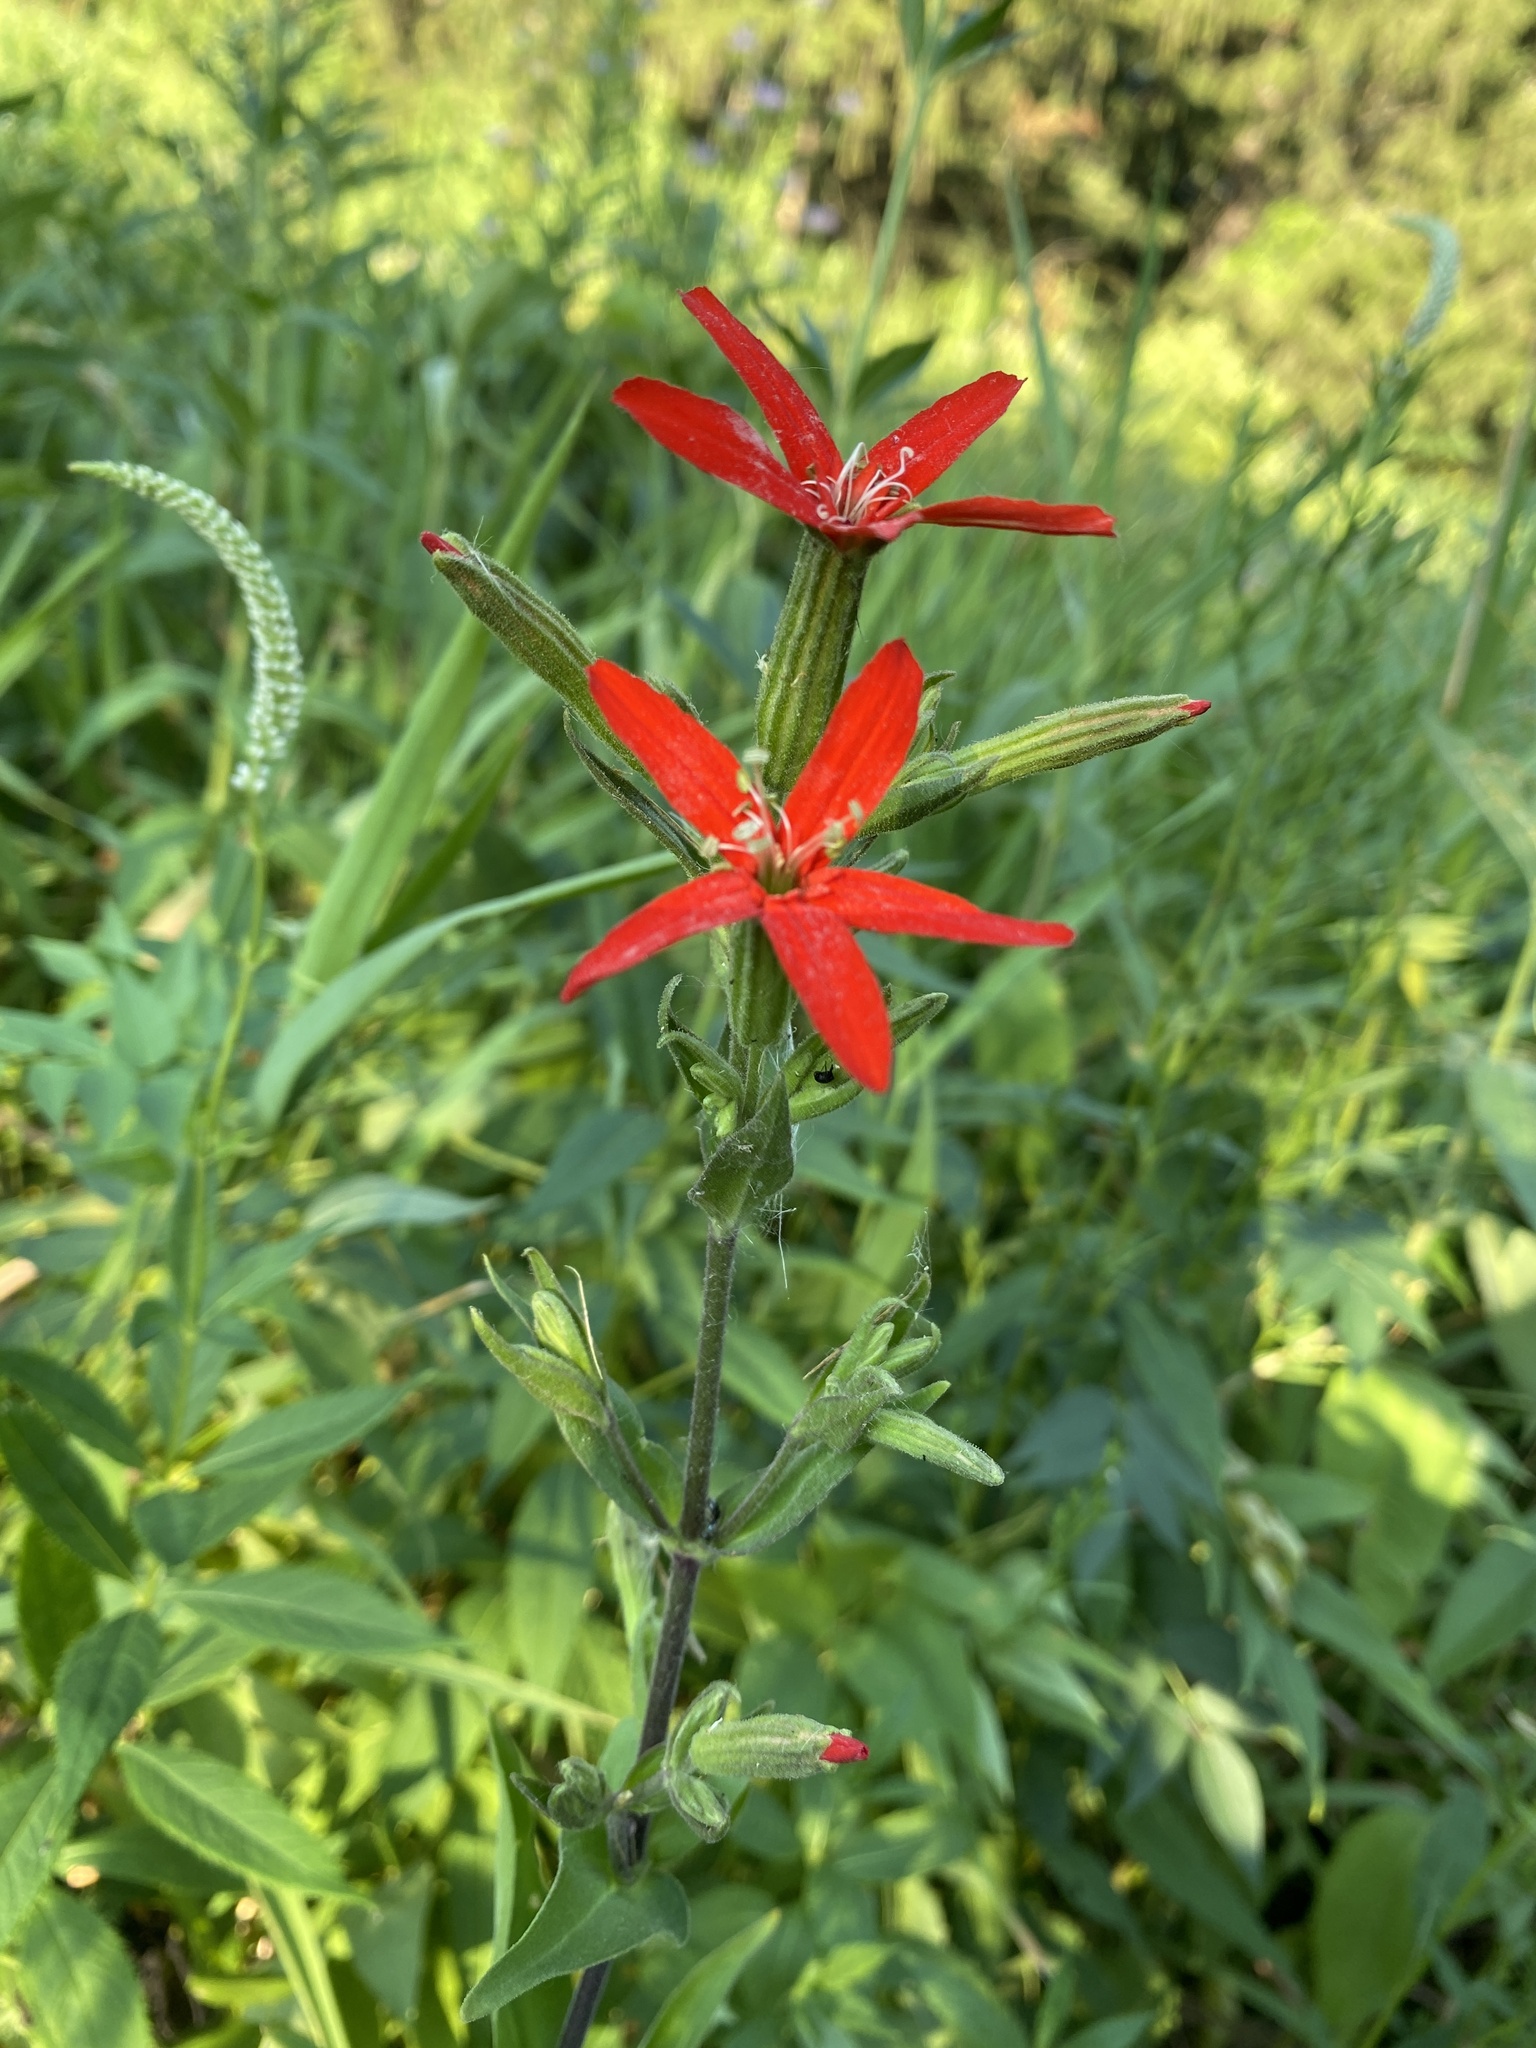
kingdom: Plantae
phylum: Tracheophyta
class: Magnoliopsida
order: Caryophyllales
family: Caryophyllaceae
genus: Silene
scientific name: Silene regia
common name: Royal catchfly
